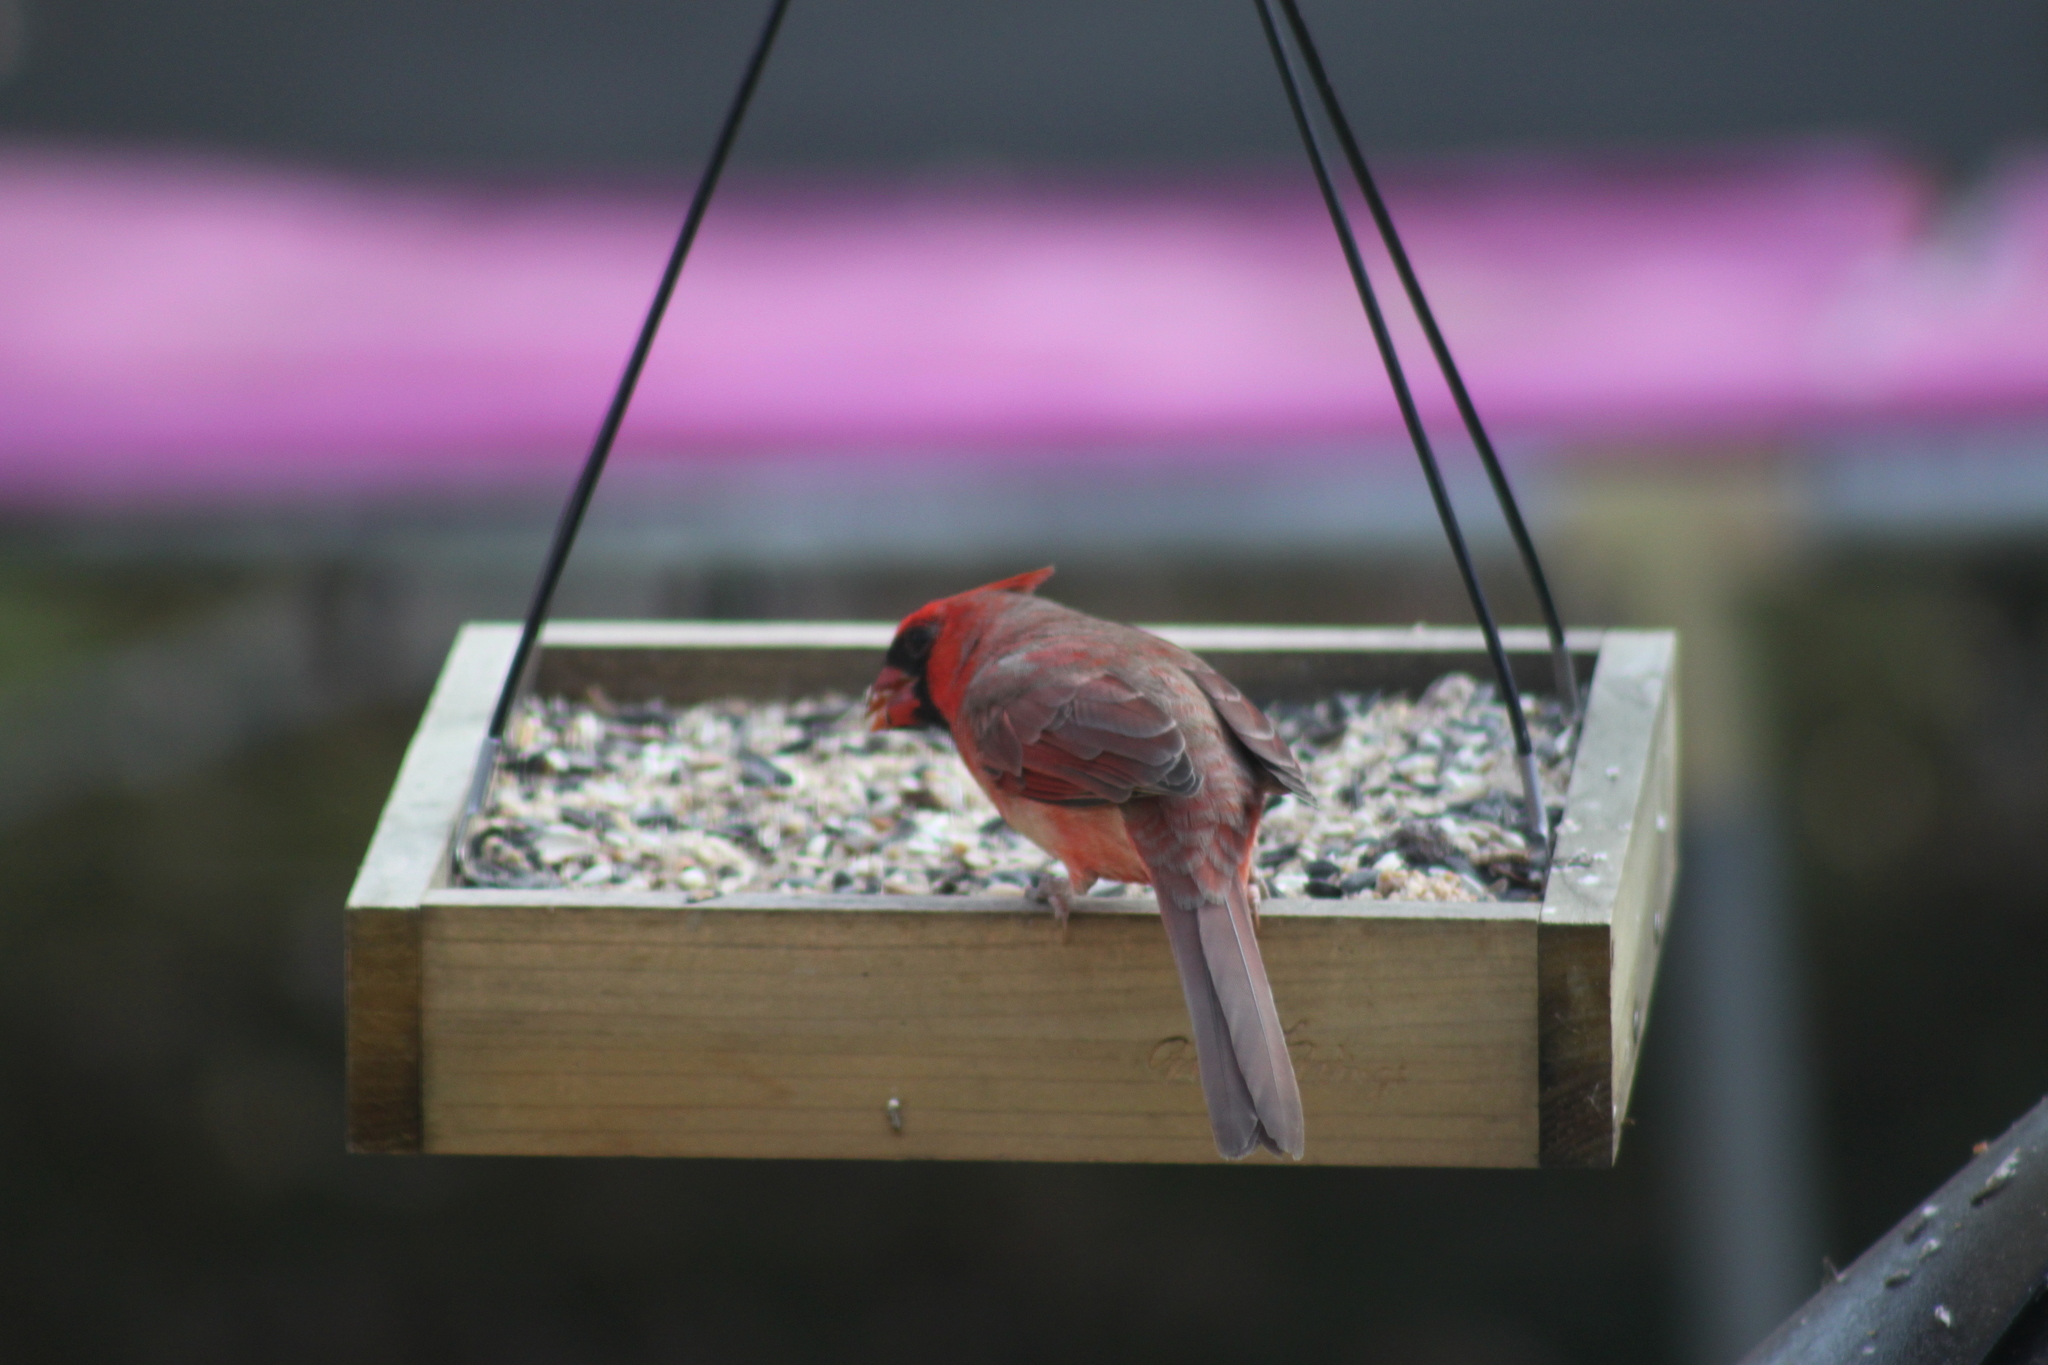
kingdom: Animalia
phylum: Chordata
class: Aves
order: Passeriformes
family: Cardinalidae
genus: Cardinalis
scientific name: Cardinalis cardinalis
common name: Northern cardinal
